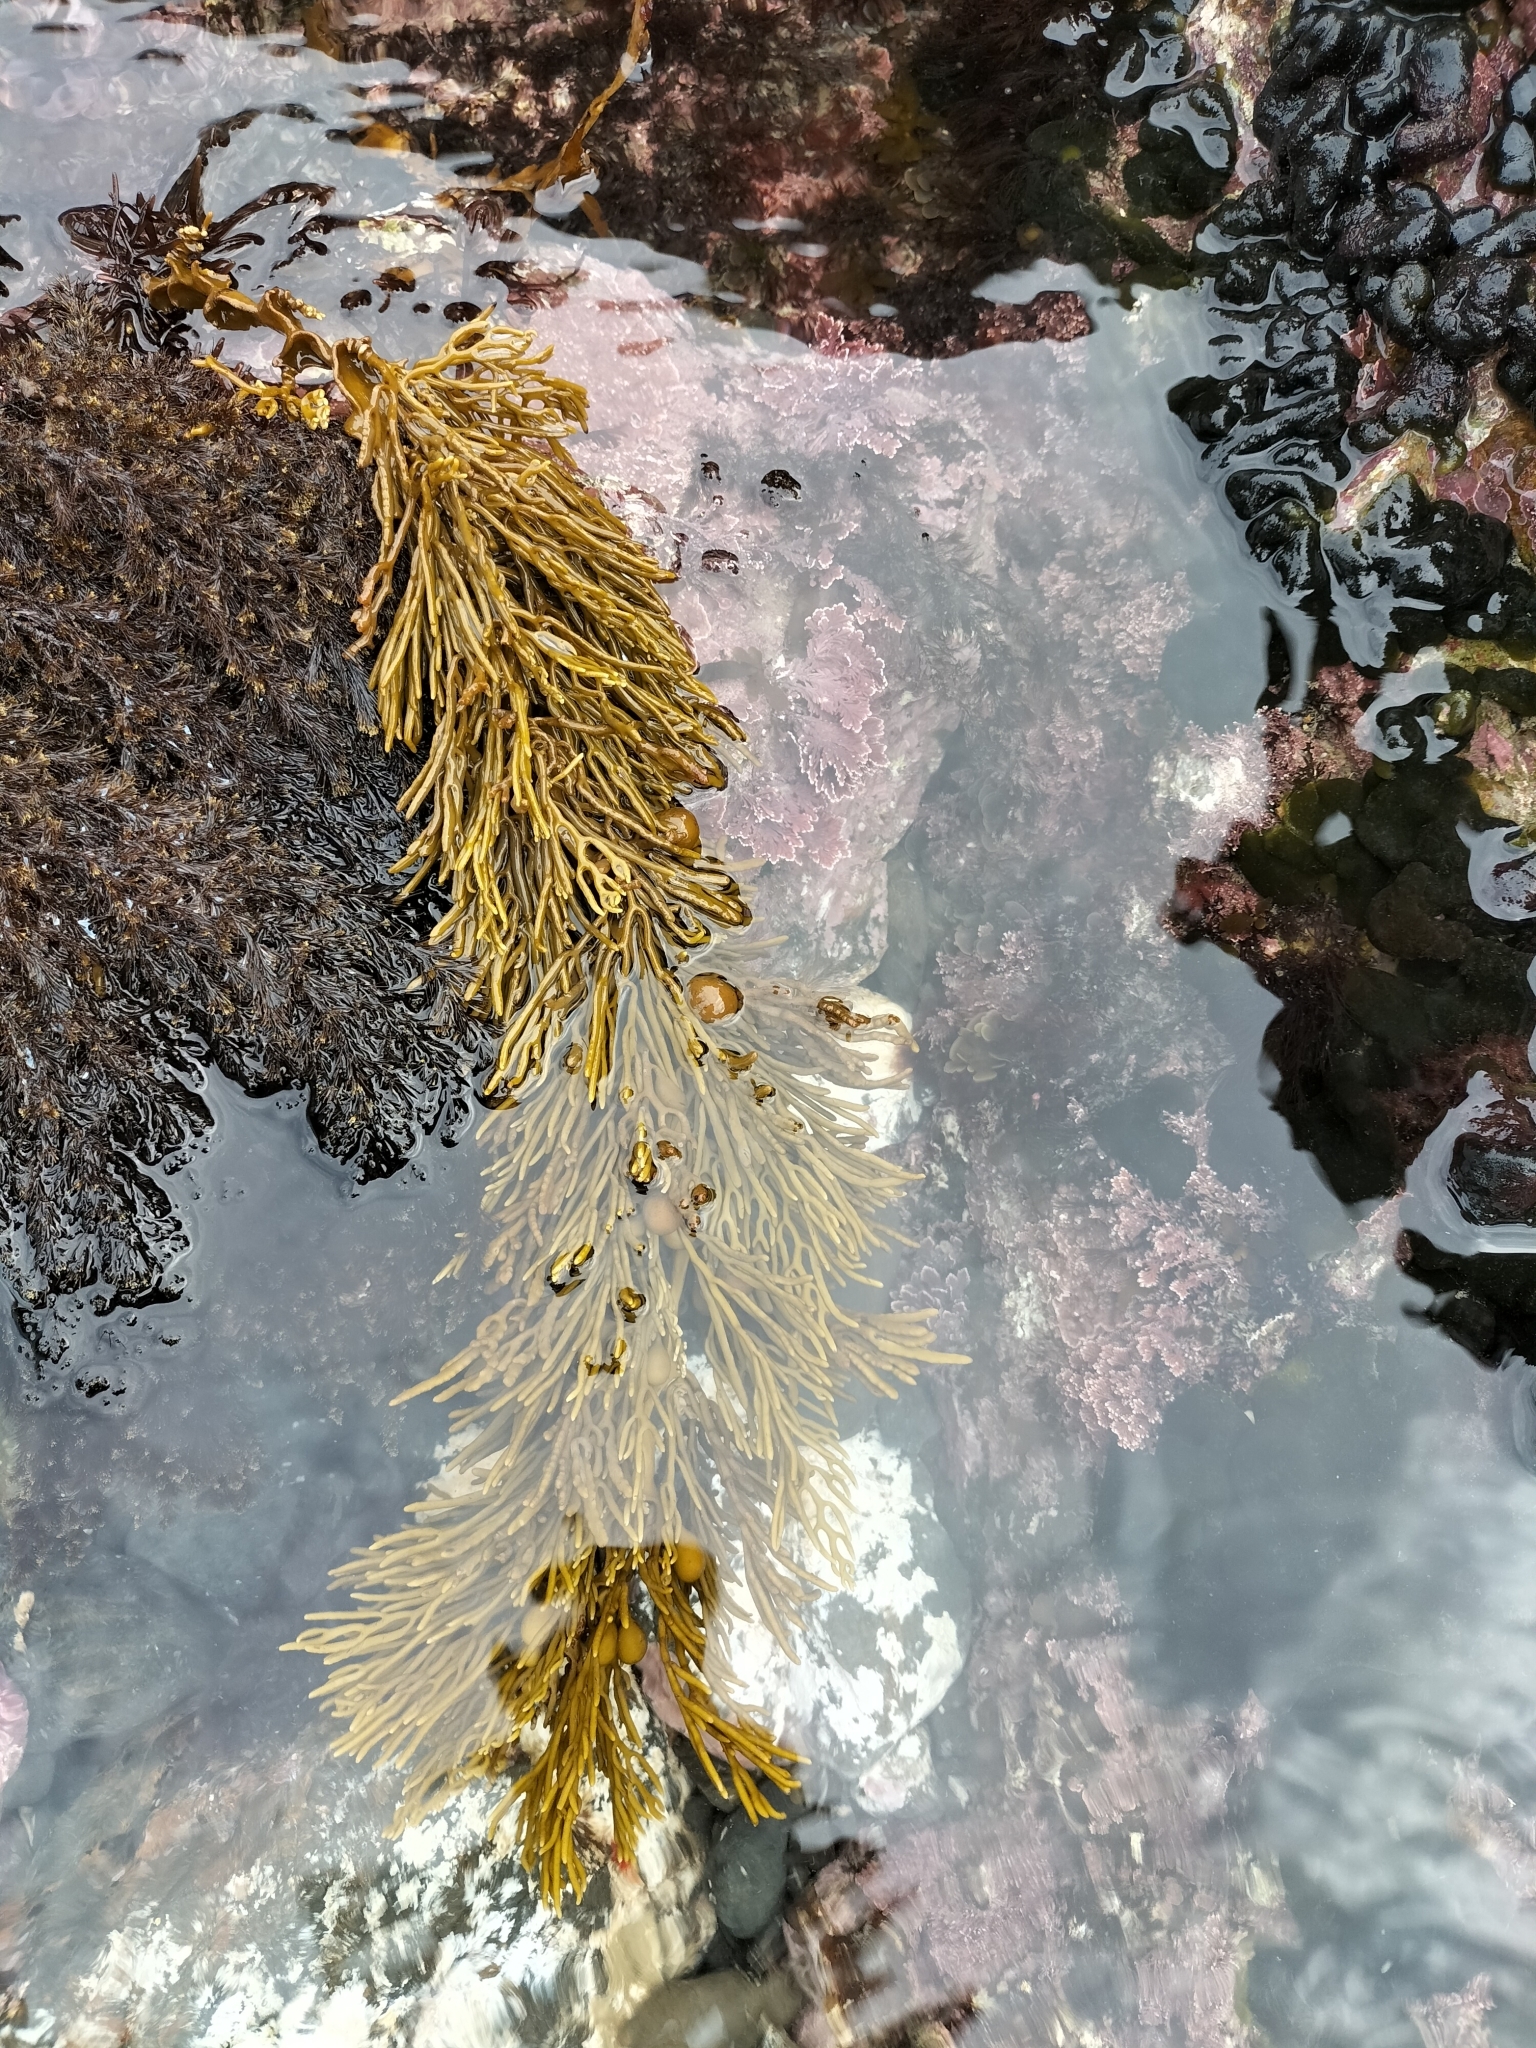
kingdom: Chromista
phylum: Ochrophyta
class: Phaeophyceae
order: Fucales
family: Sargassaceae
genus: Cystophora
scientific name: Cystophora retroflexa
